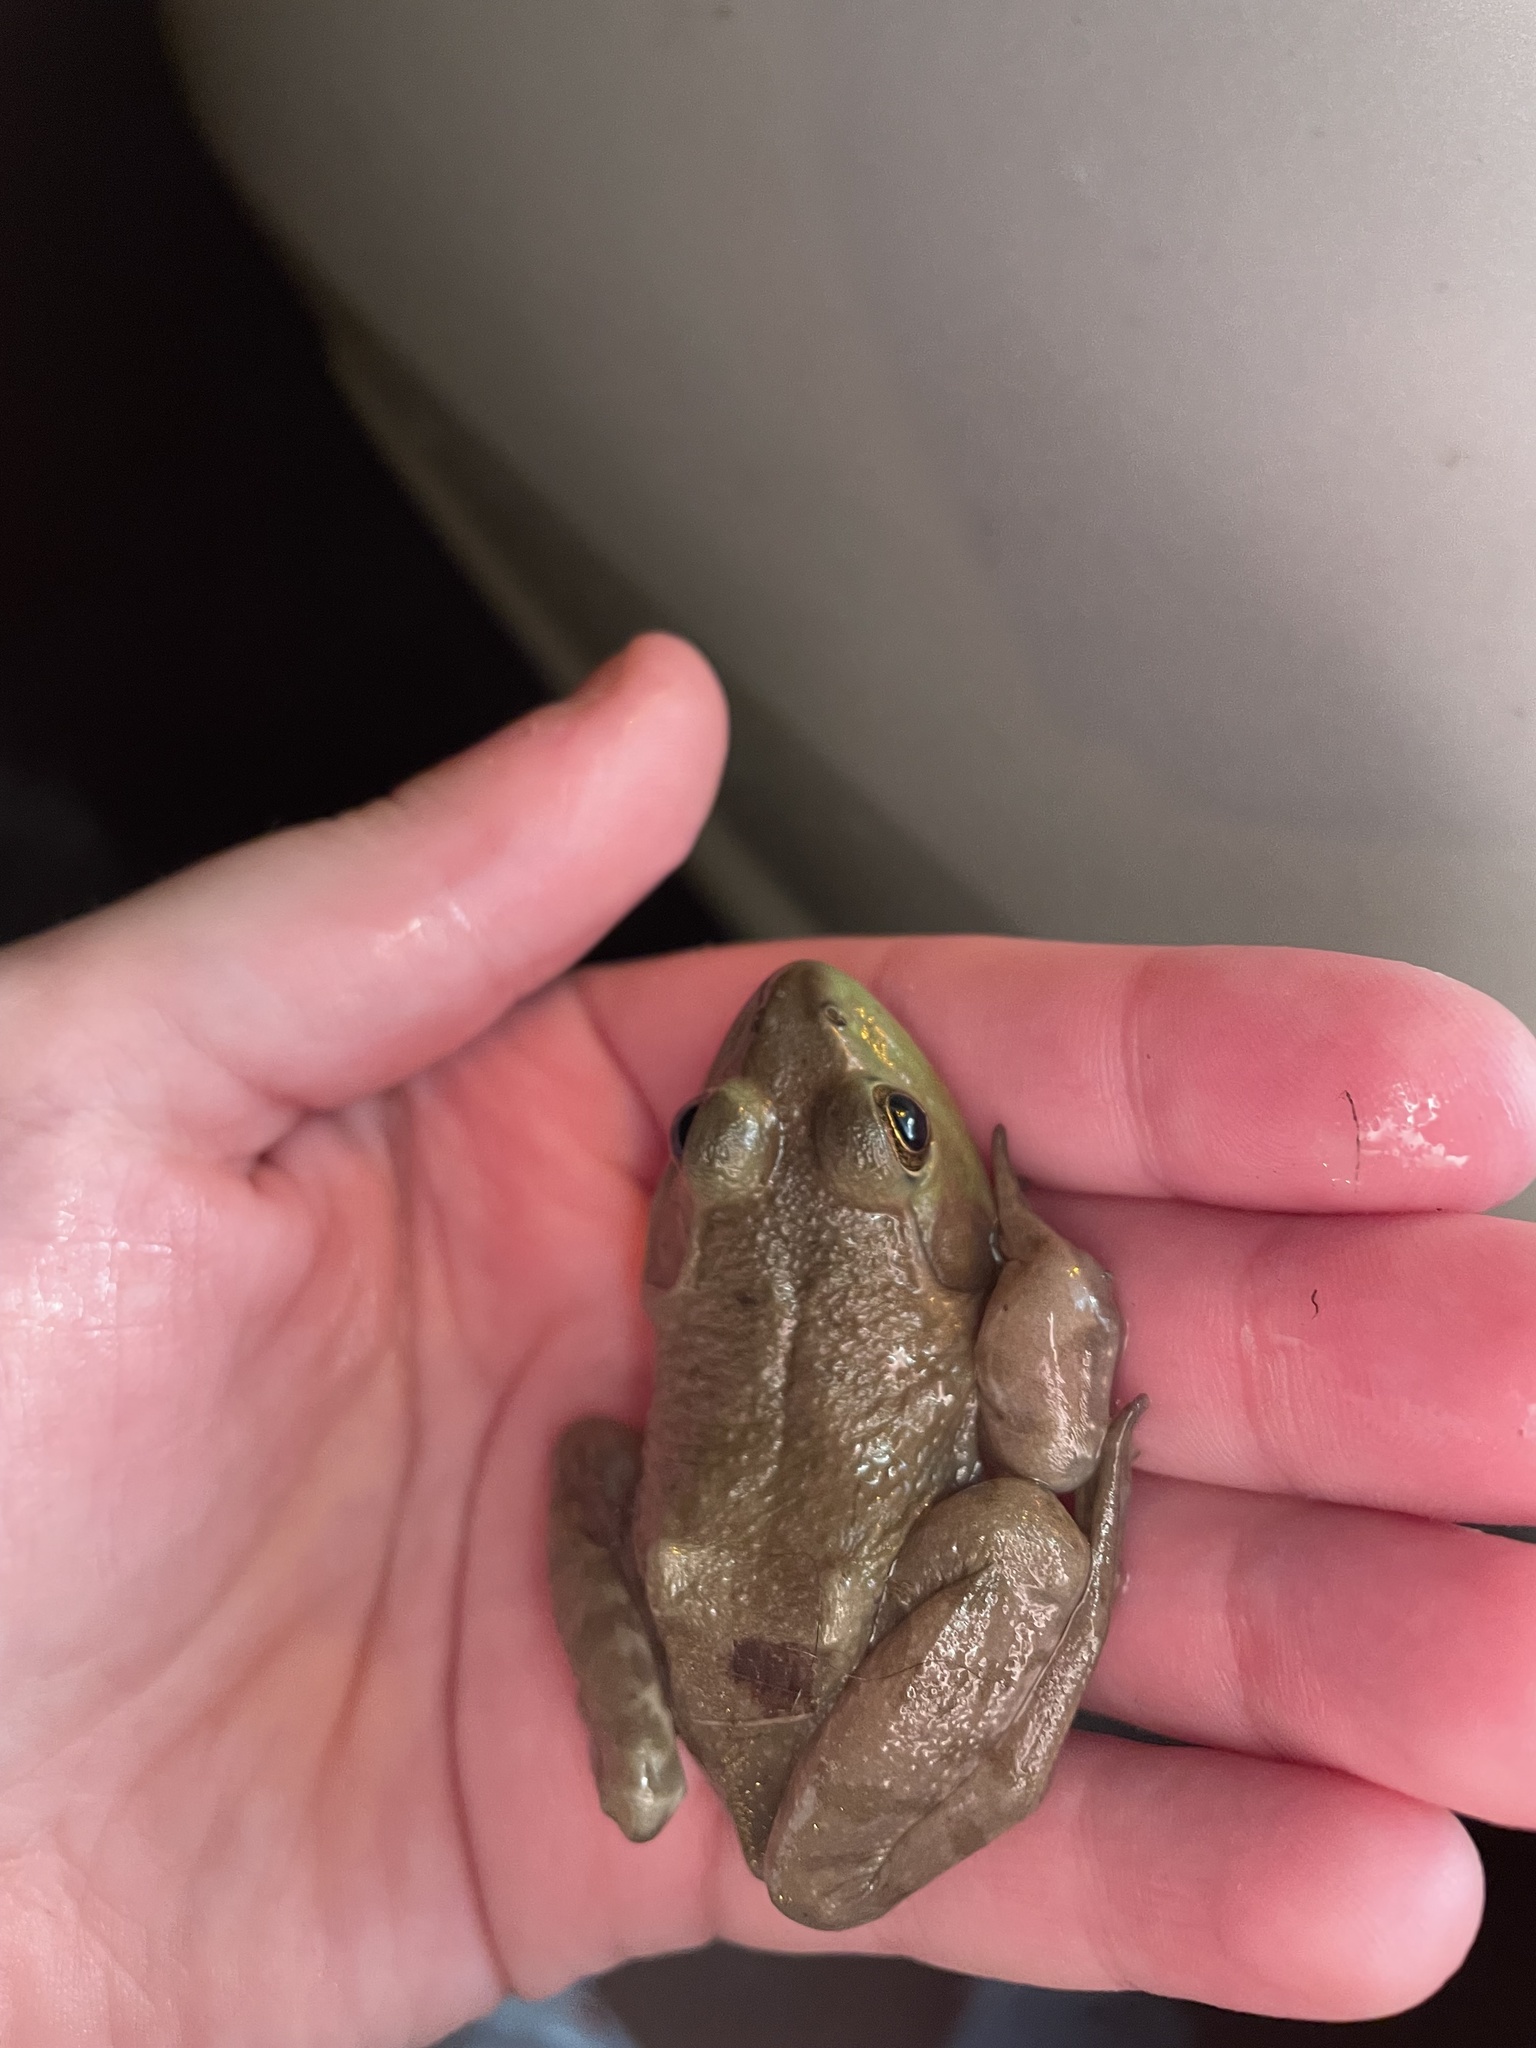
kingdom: Animalia
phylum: Chordata
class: Amphibia
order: Anura
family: Ranidae
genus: Lithobates
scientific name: Lithobates catesbeianus
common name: American bullfrog
